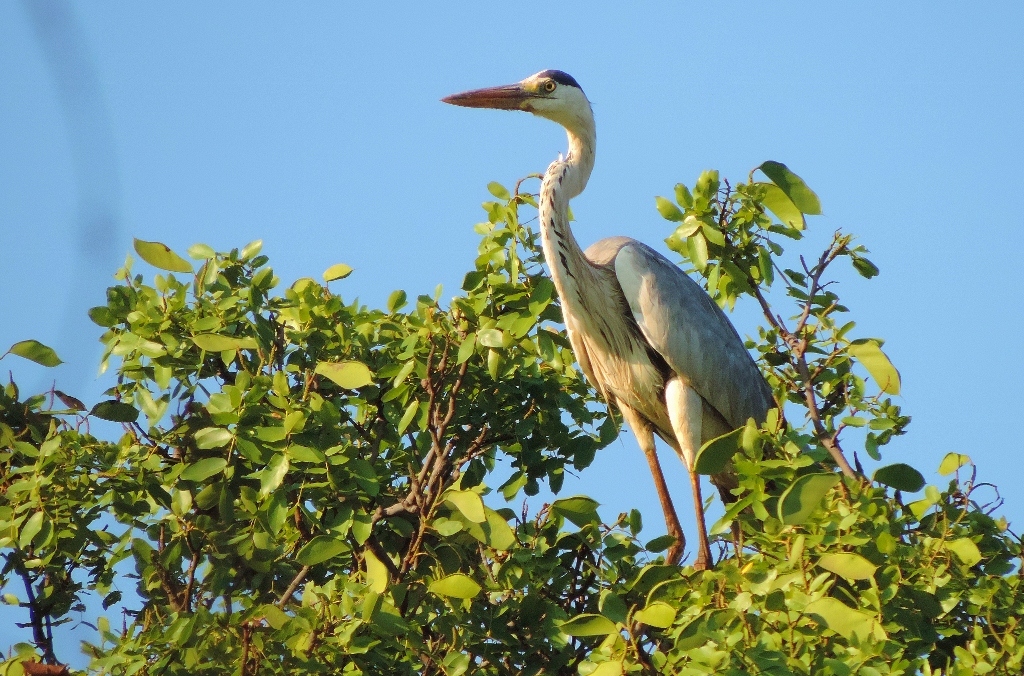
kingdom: Animalia
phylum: Chordata
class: Aves
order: Pelecaniformes
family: Ardeidae
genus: Ardea
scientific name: Ardea cinerea
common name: Grey heron
